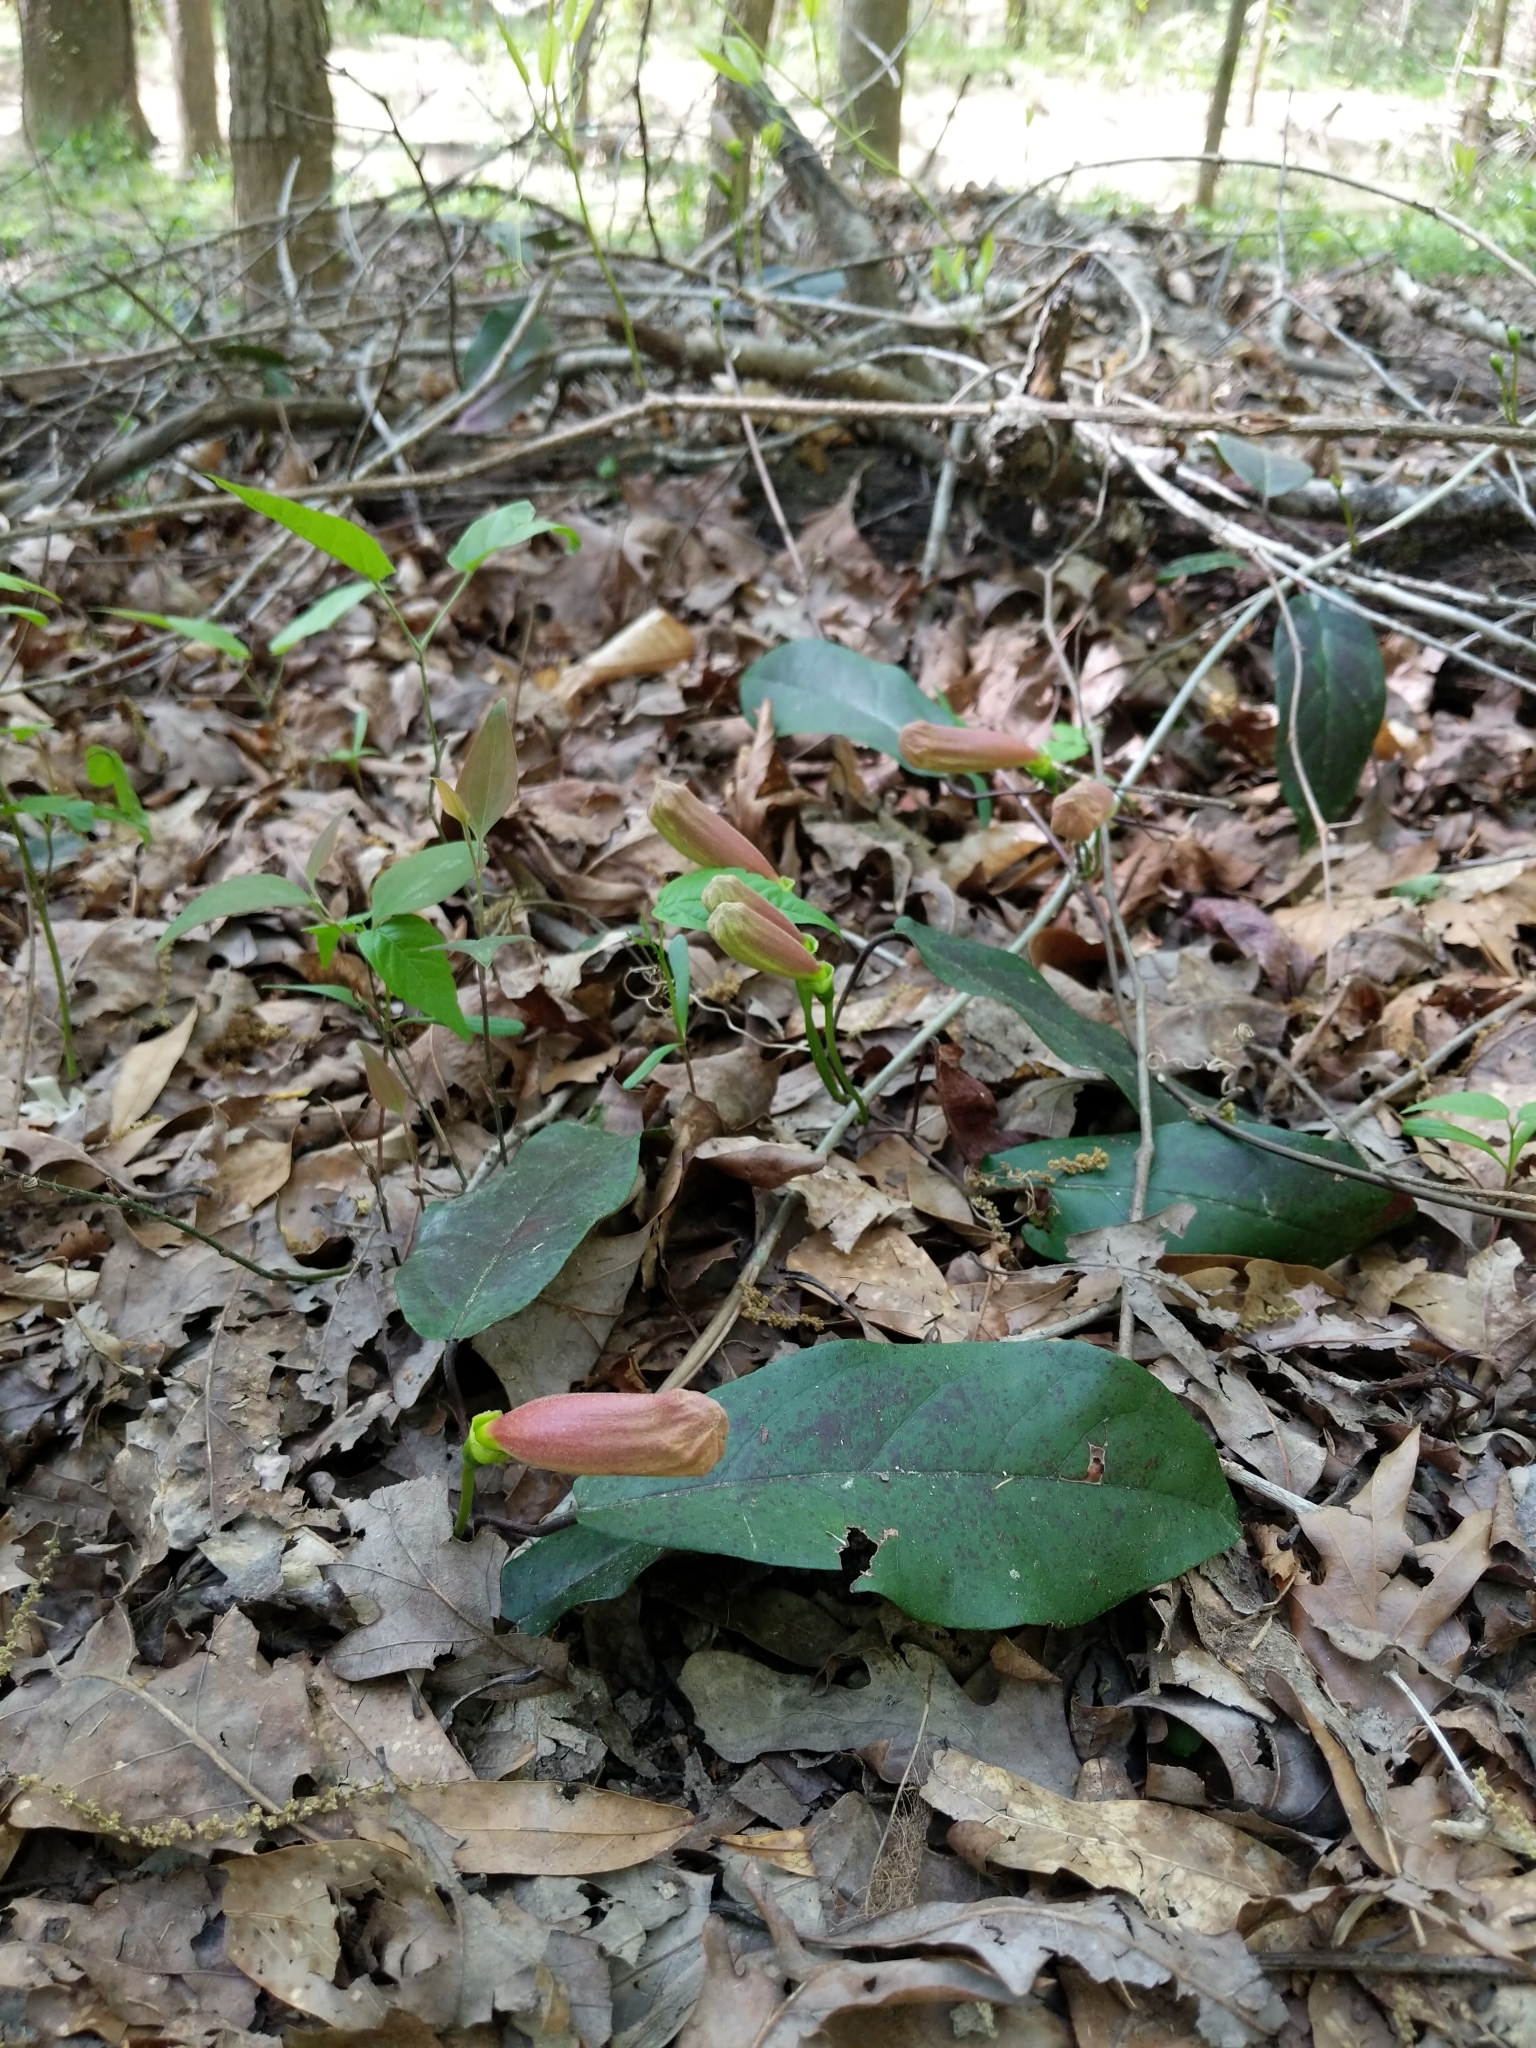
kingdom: Plantae
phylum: Tracheophyta
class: Magnoliopsida
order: Lamiales
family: Bignoniaceae
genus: Bignonia
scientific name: Bignonia capreolata
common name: Crossvine
